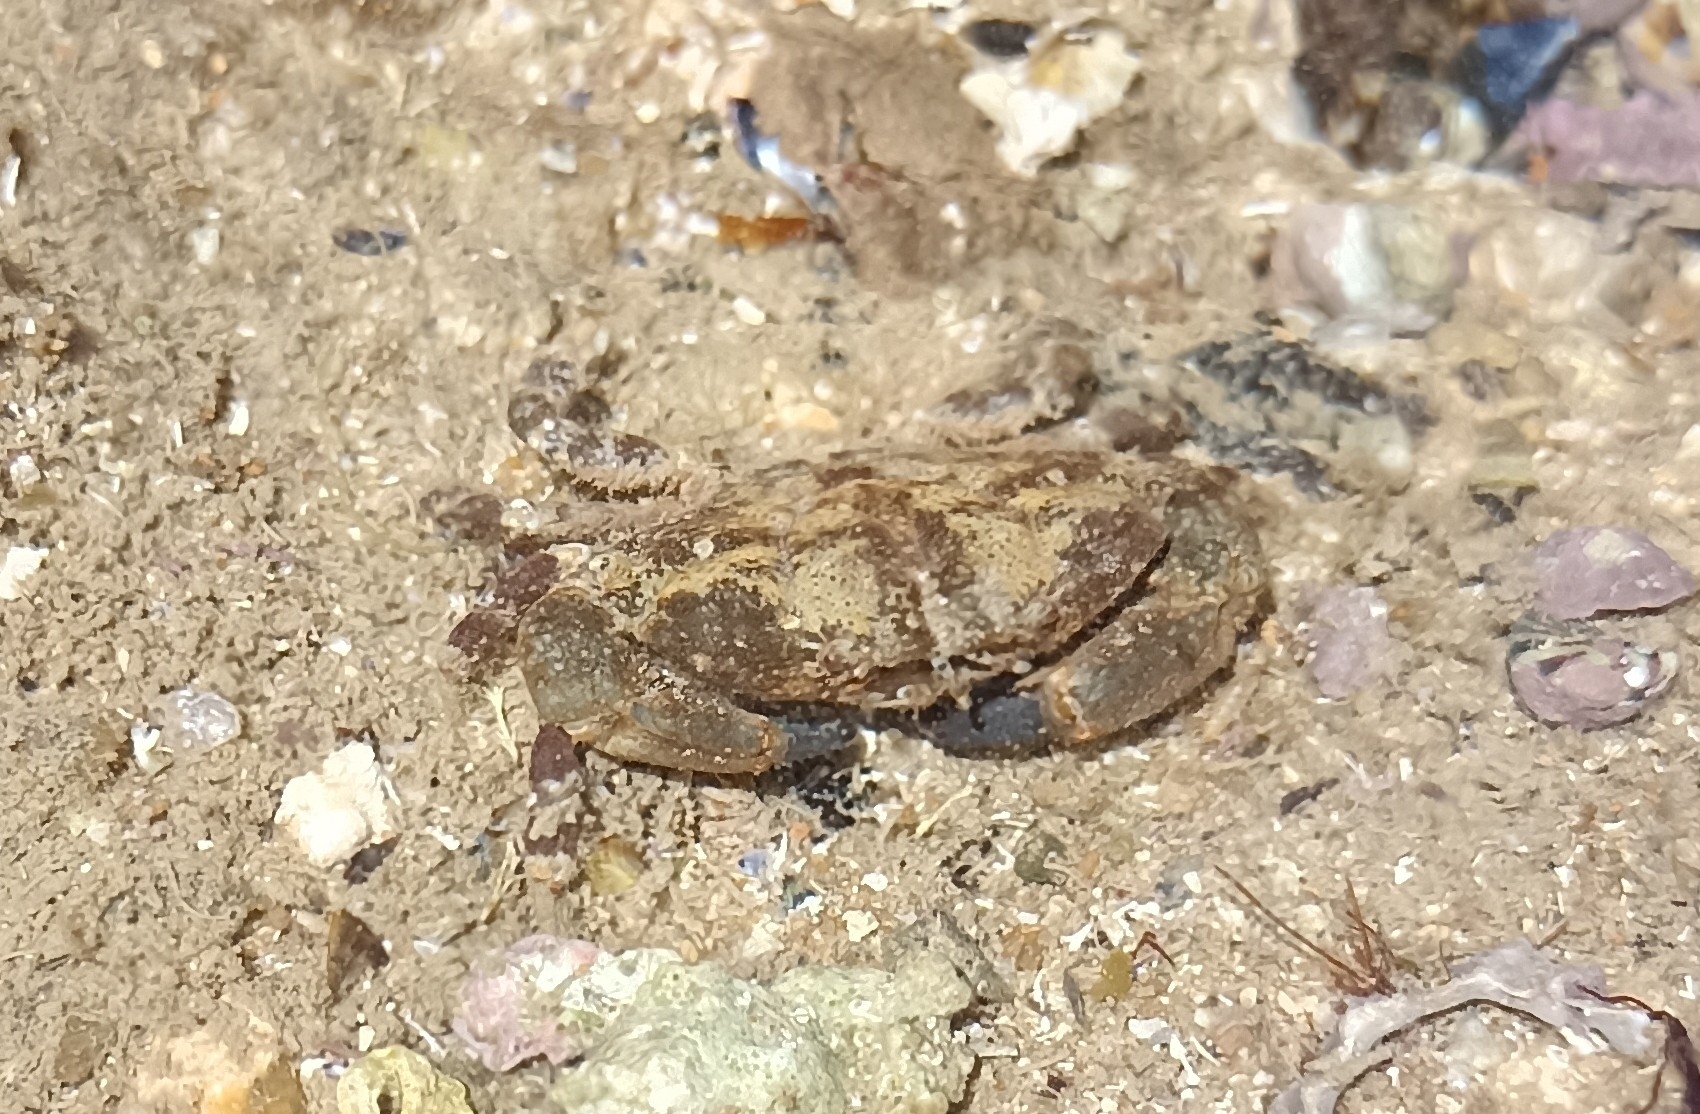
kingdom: Animalia
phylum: Arthropoda
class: Malacostraca
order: Decapoda
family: Xanthidae
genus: Xantho
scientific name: Xantho hydrophilus
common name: Montagu's crab
